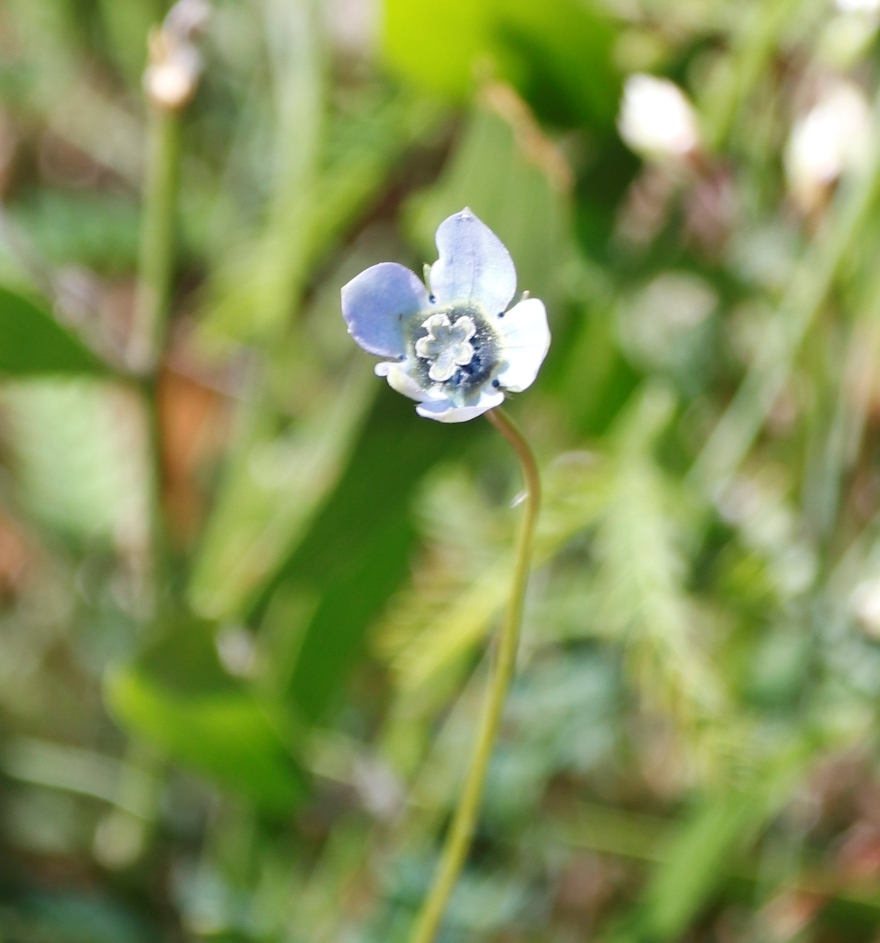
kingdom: Plantae
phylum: Tracheophyta
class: Magnoliopsida
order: Asterales
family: Campanulaceae
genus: Wahlenbergia
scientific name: Wahlenbergia capensis
